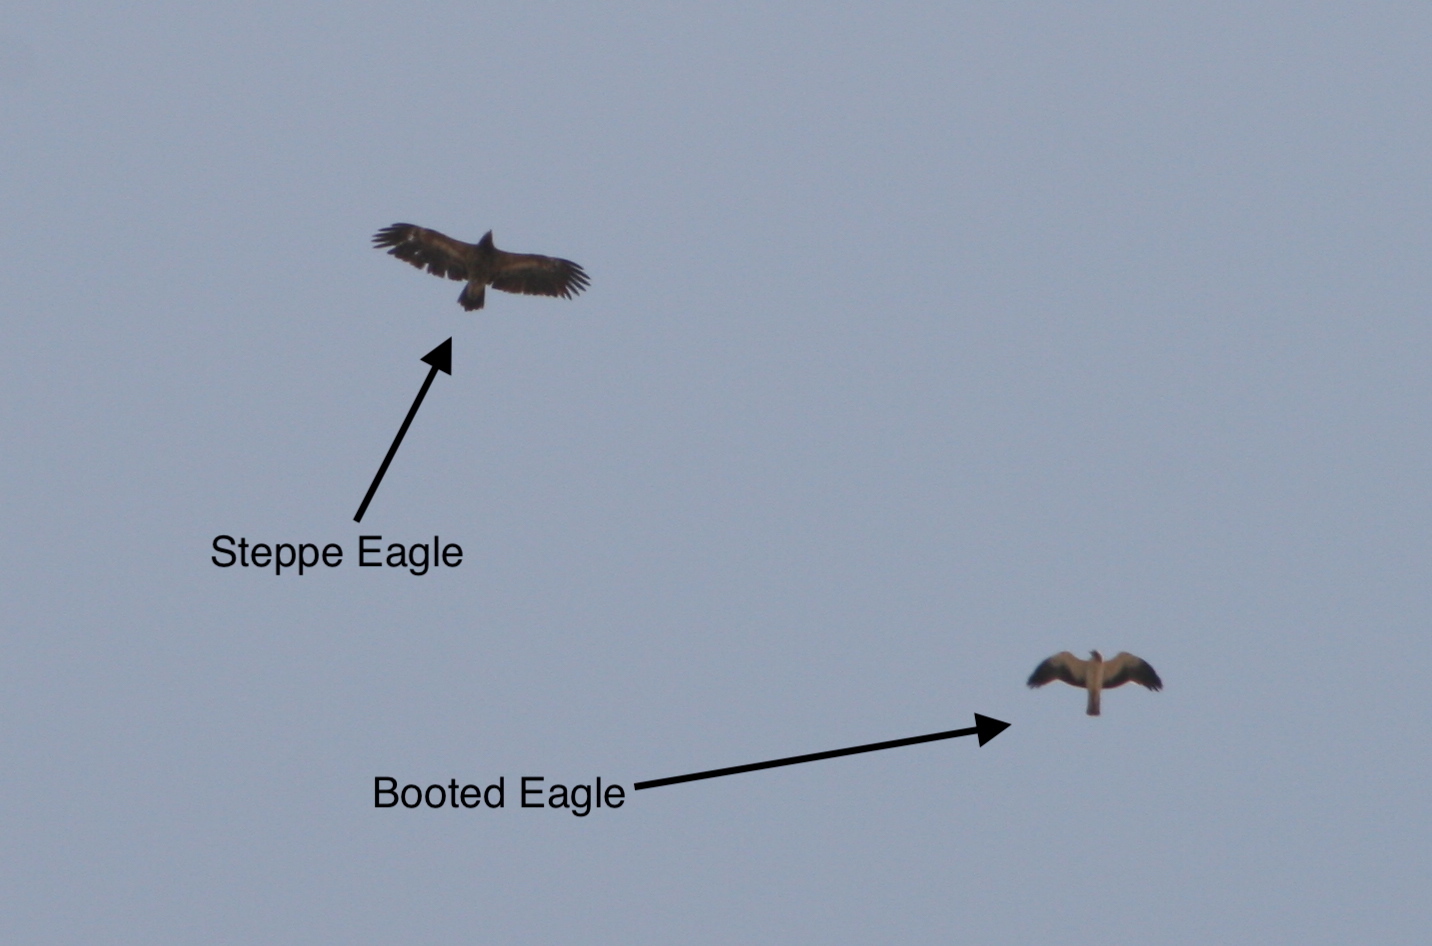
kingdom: Animalia
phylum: Chordata
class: Aves
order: Accipitriformes
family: Accipitridae
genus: Hieraaetus
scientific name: Hieraaetus pennatus
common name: Booted eagle
